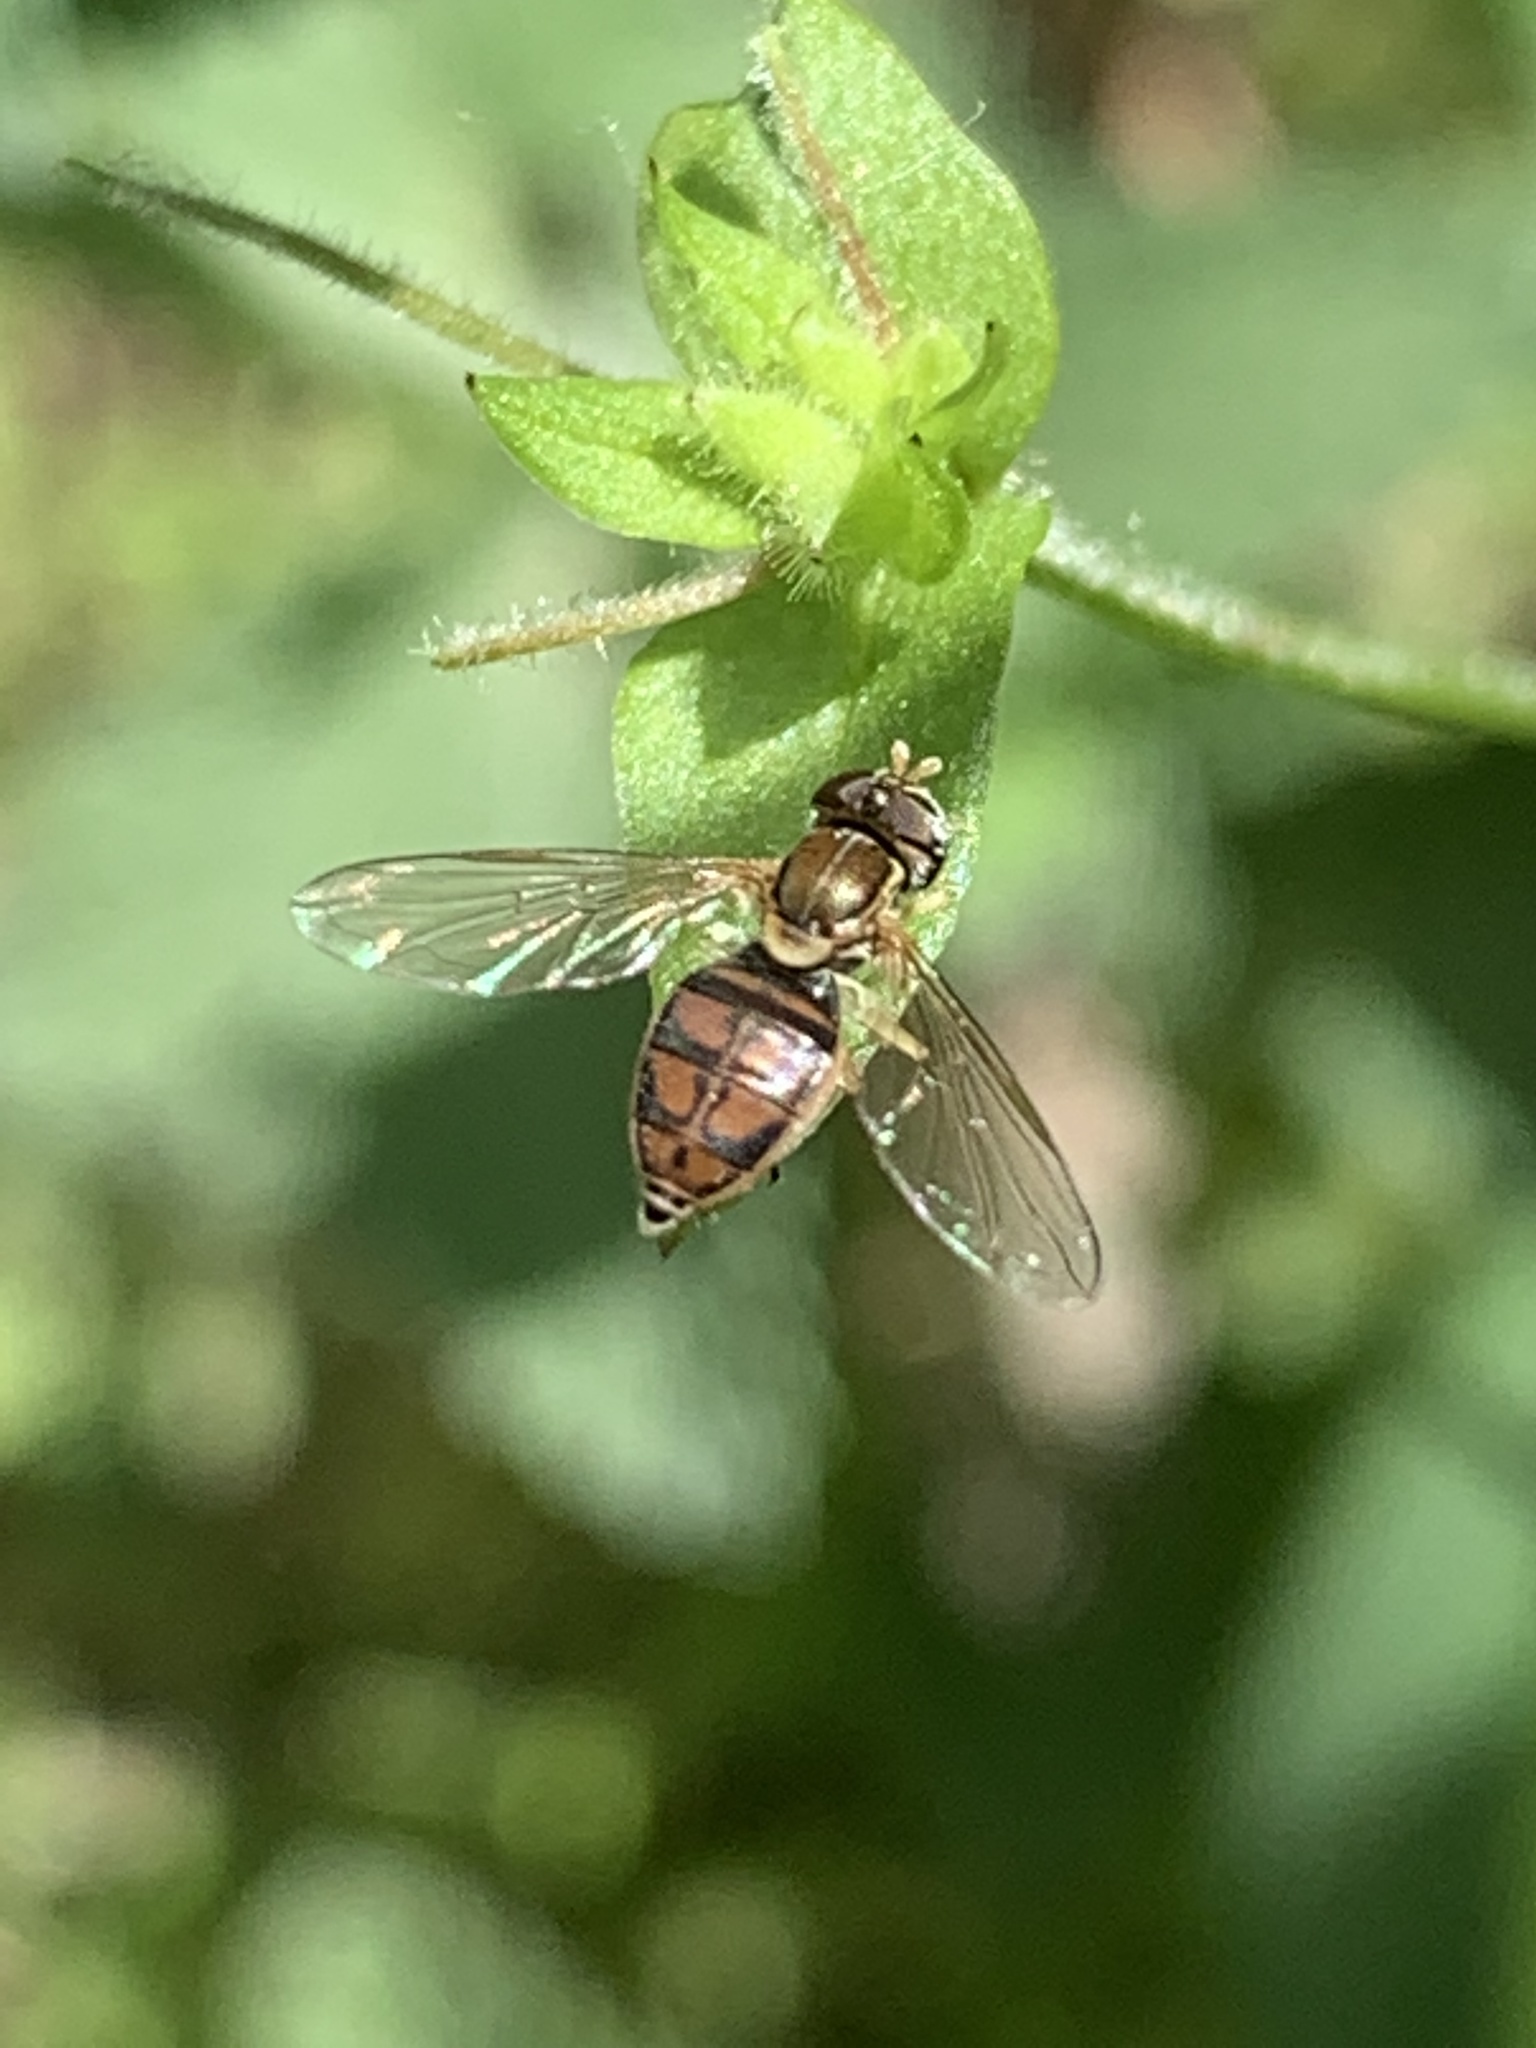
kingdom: Animalia
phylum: Arthropoda
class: Insecta
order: Diptera
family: Syrphidae
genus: Toxomerus
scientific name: Toxomerus marginatus
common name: Syrphid fly
